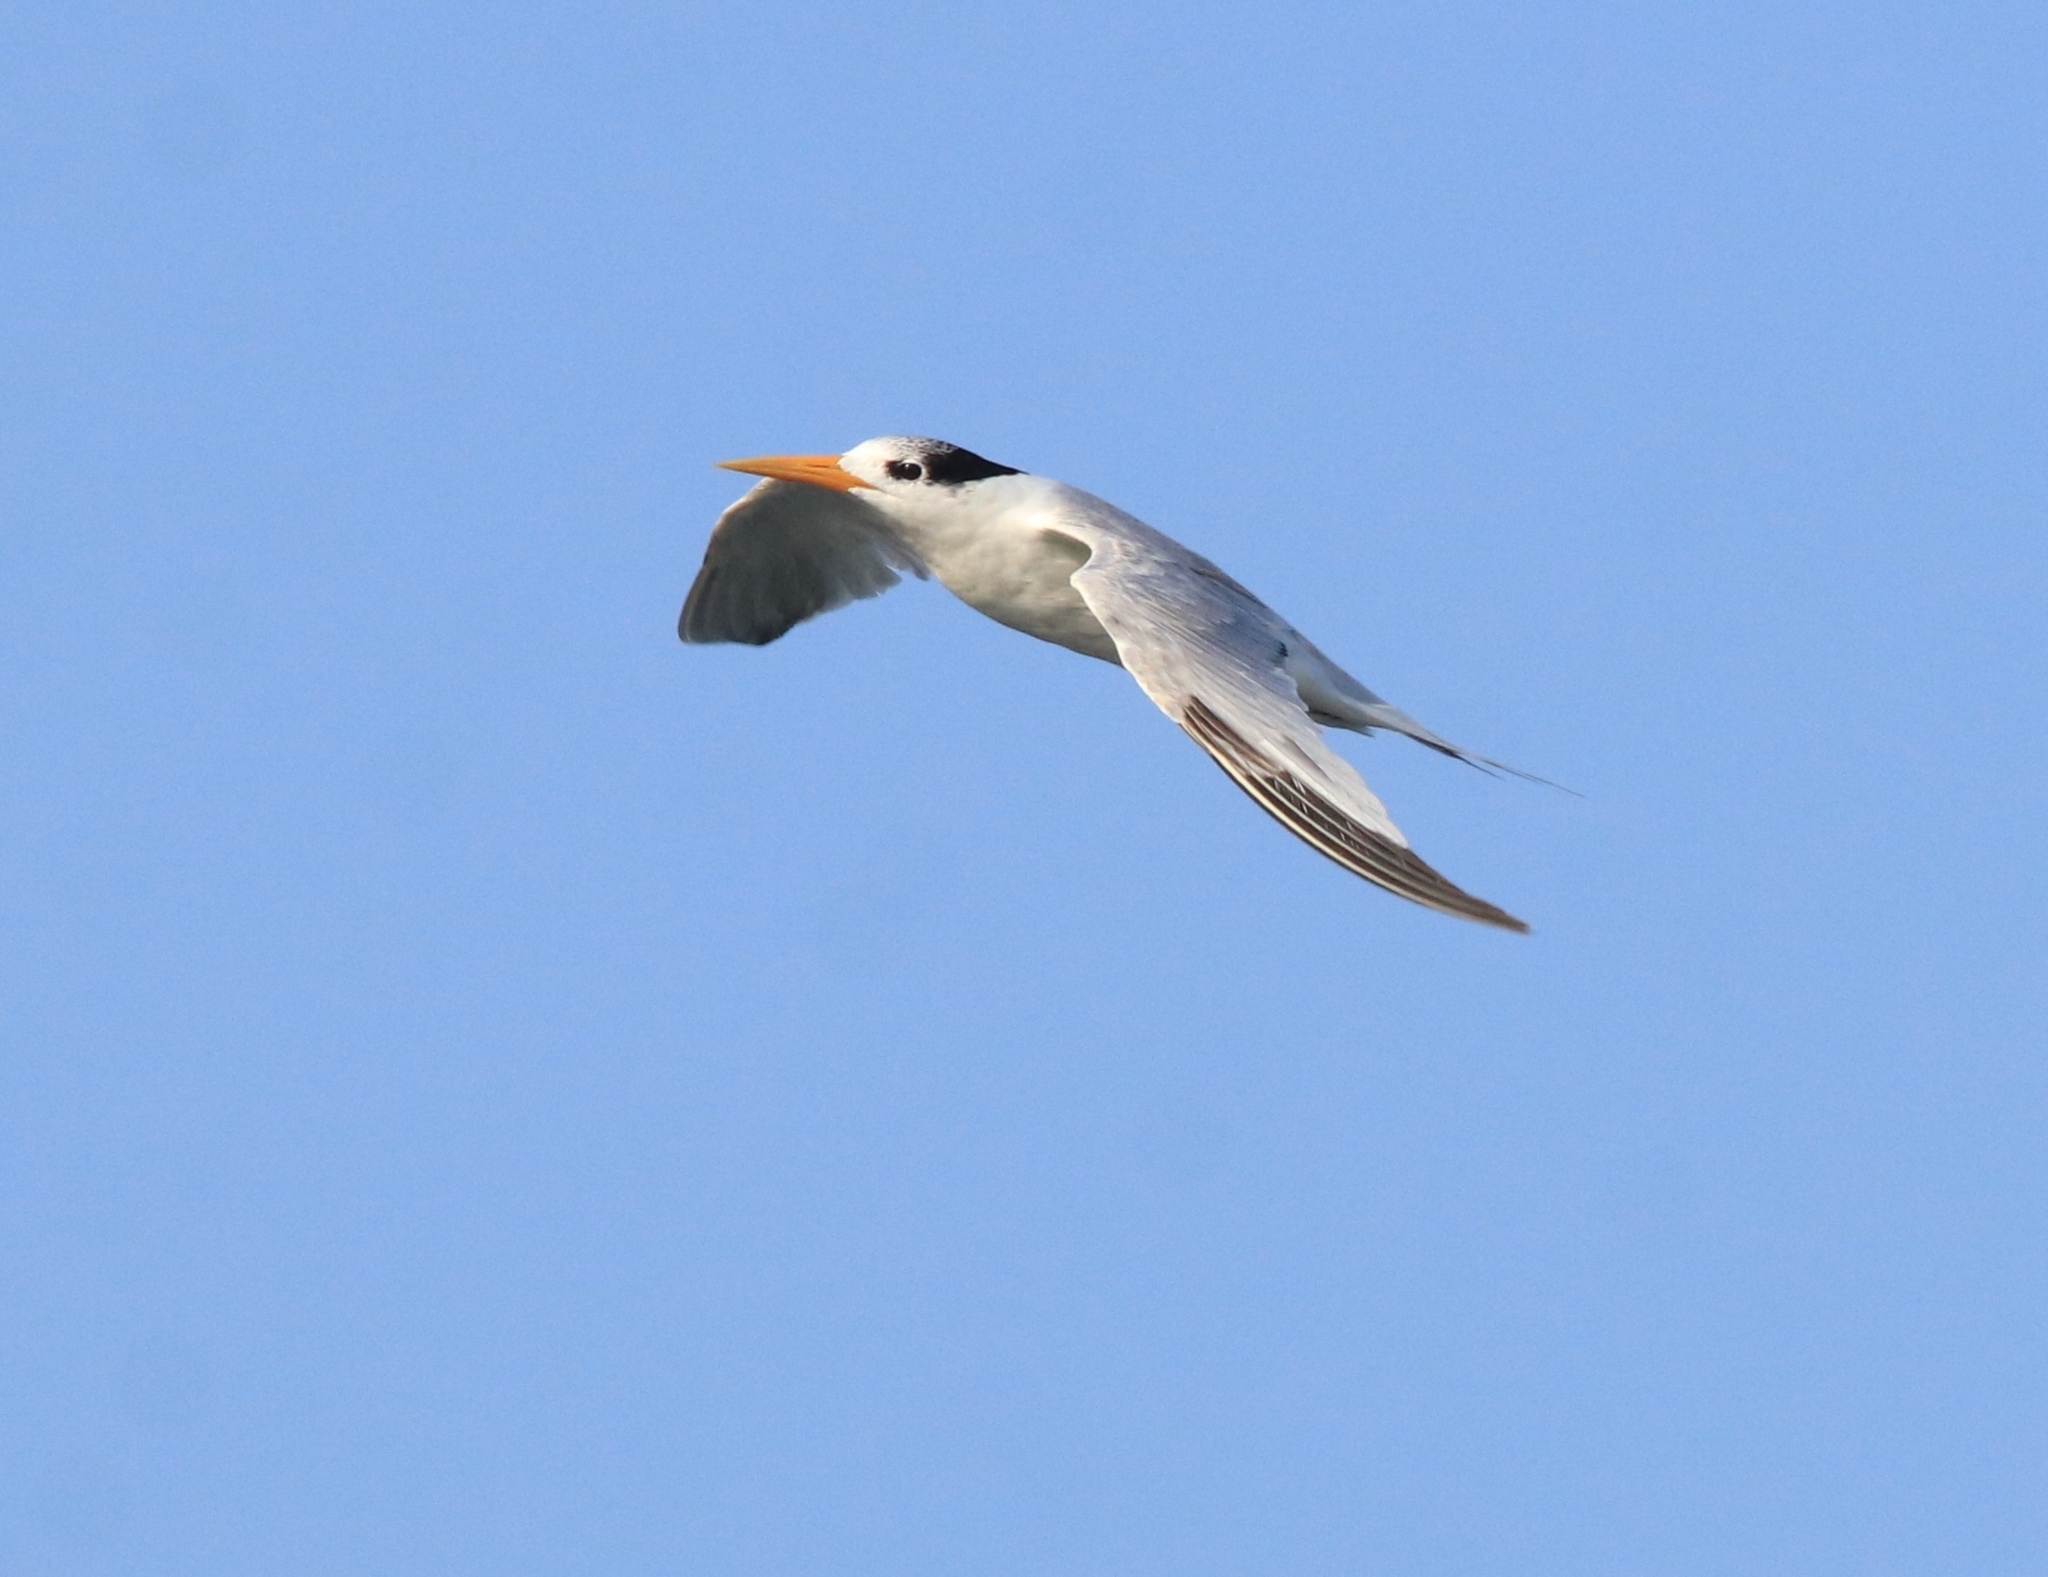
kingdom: Animalia
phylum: Chordata
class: Aves
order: Charadriiformes
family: Laridae
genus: Thalasseus
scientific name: Thalasseus bengalensis
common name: Lesser crested tern
